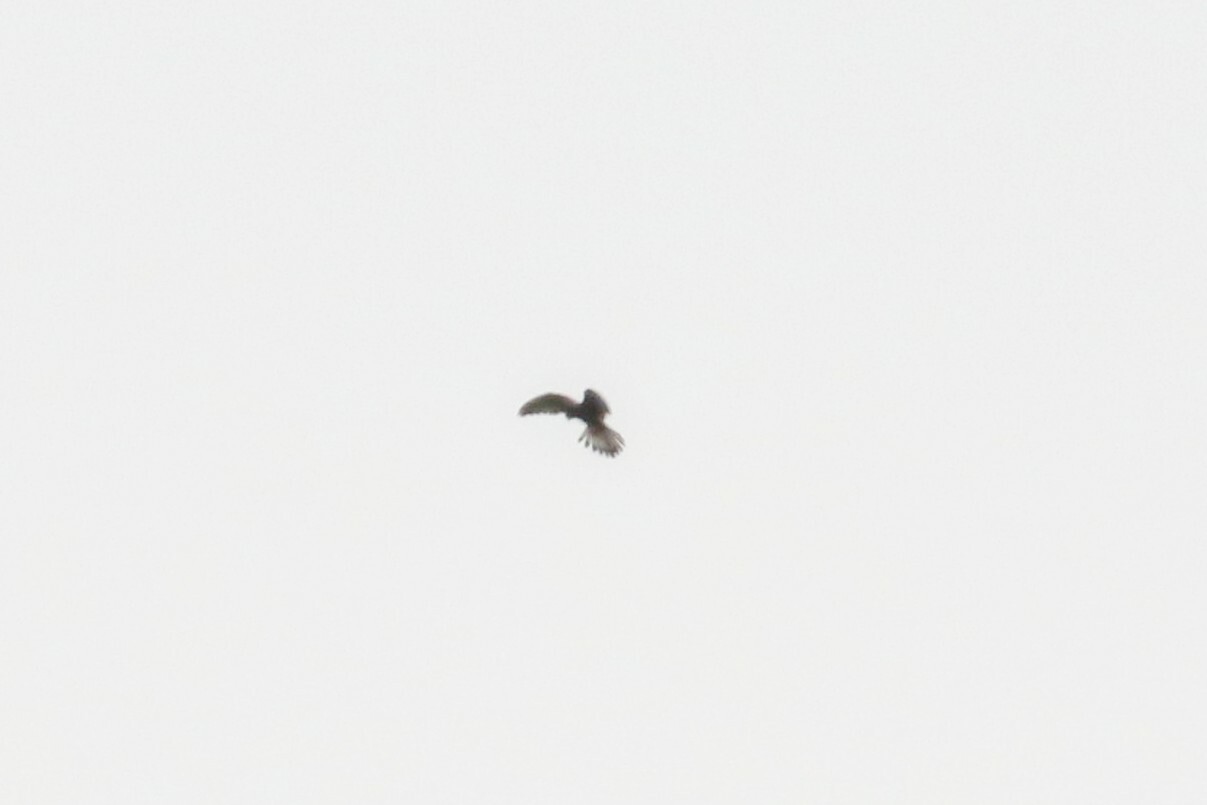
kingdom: Animalia
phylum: Chordata
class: Aves
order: Falconiformes
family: Falconidae
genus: Falco
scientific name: Falco tinnunculus
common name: Common kestrel
